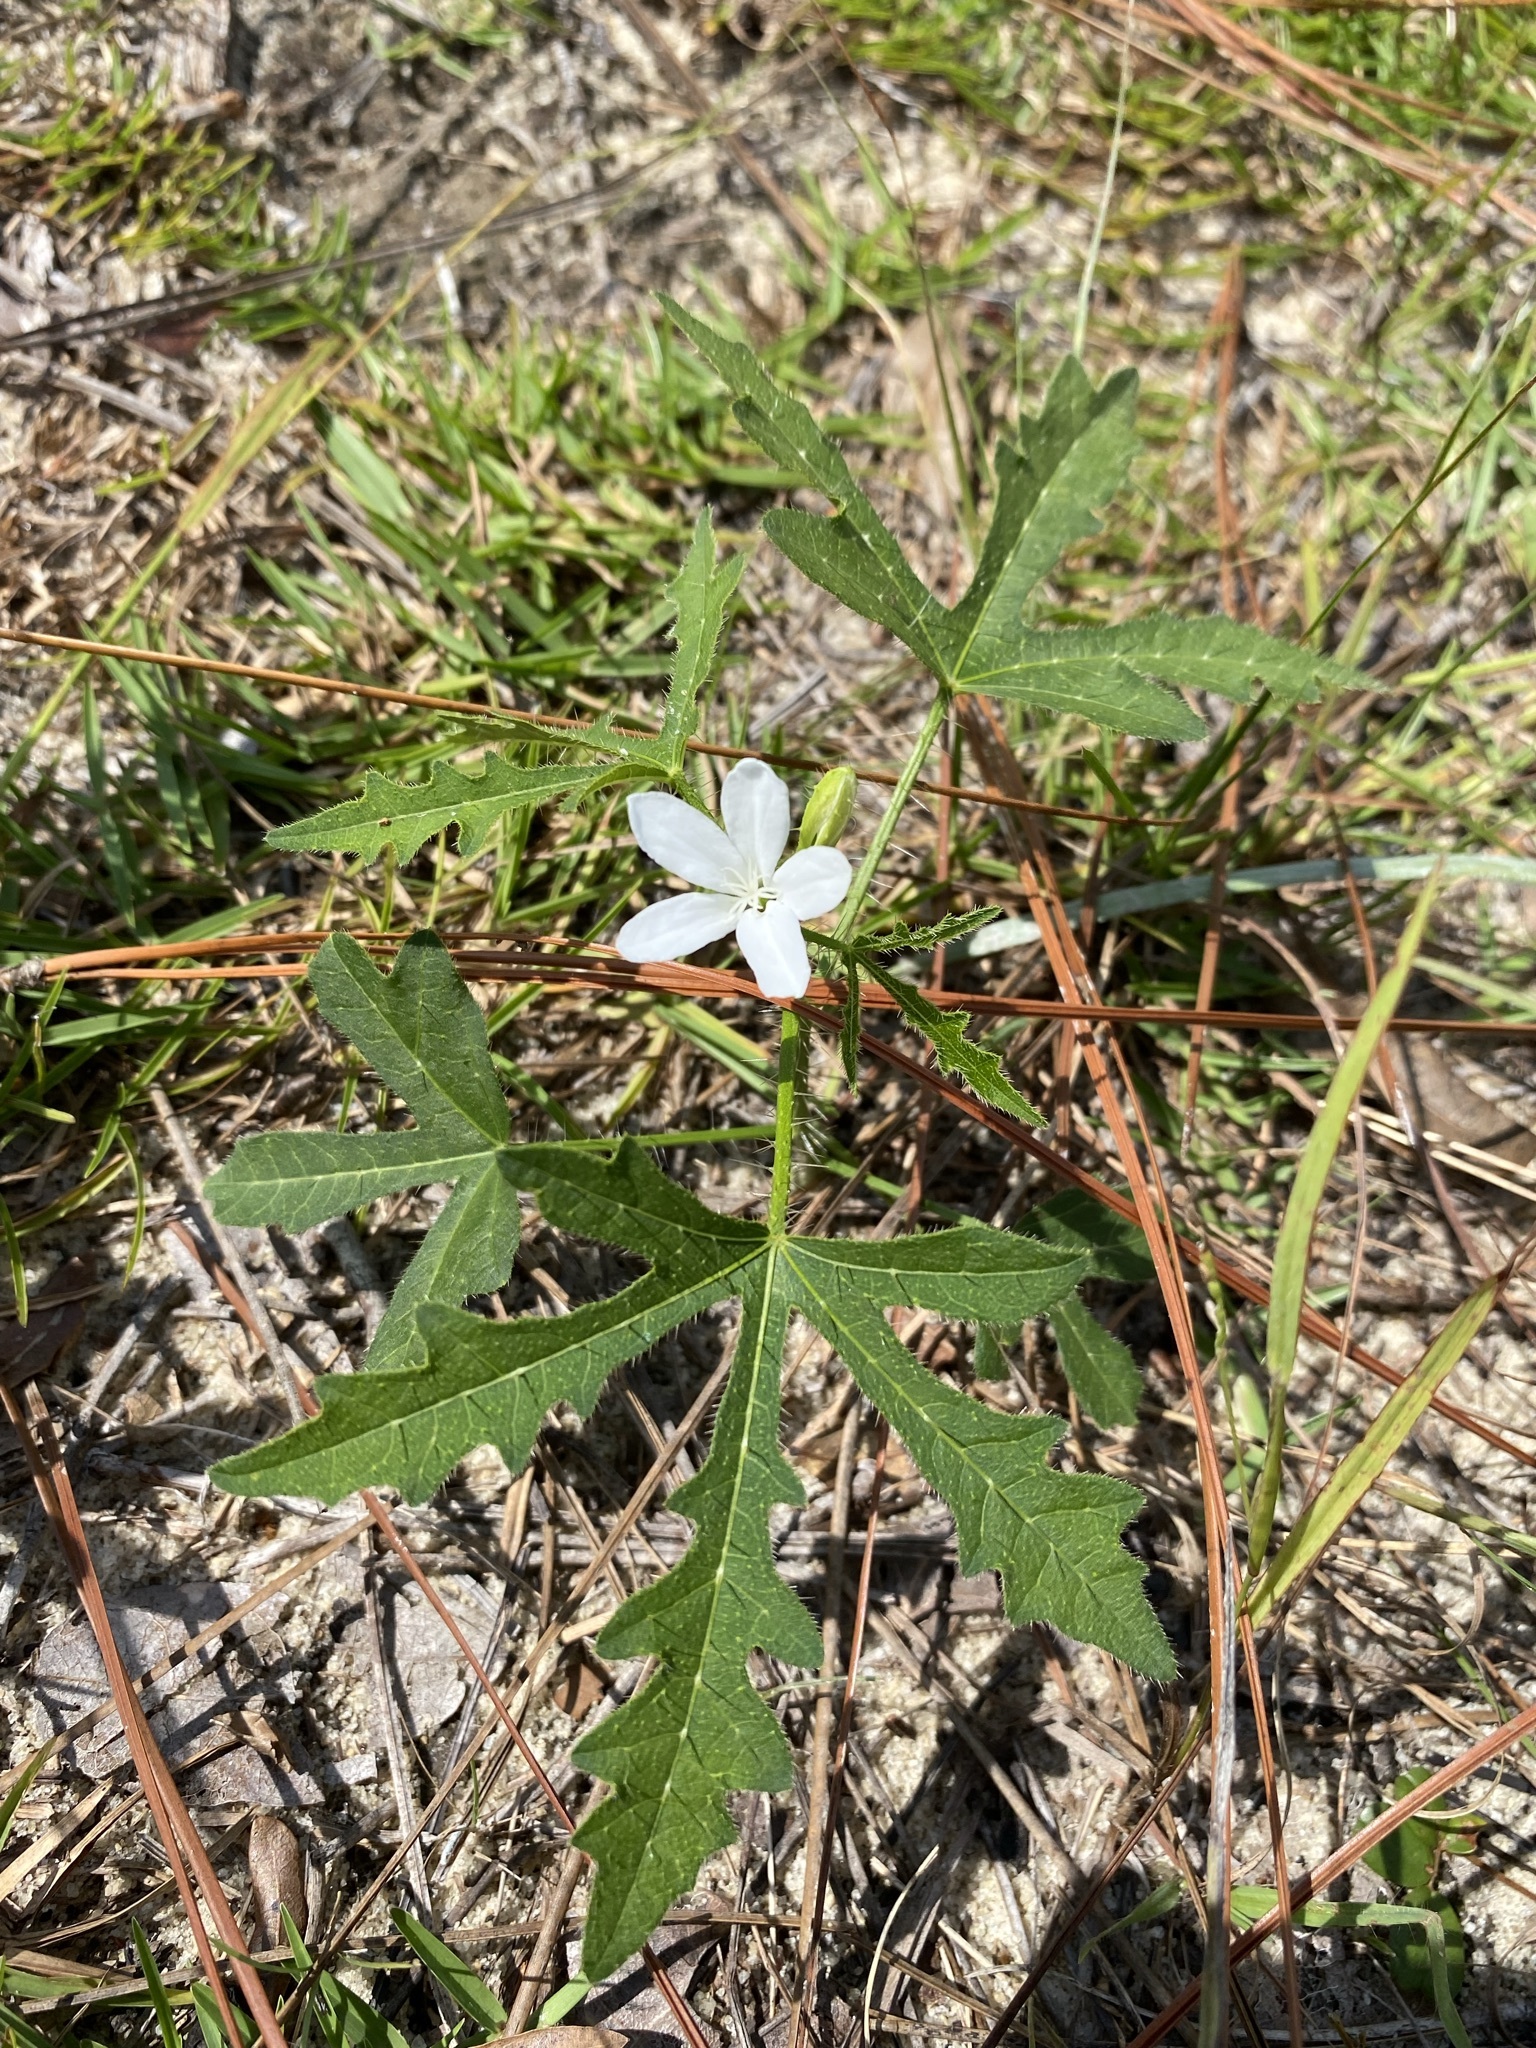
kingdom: Plantae
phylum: Tracheophyta
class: Magnoliopsida
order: Malpighiales
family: Euphorbiaceae
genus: Cnidoscolus
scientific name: Cnidoscolus stimulosus
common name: Bull-nettle
